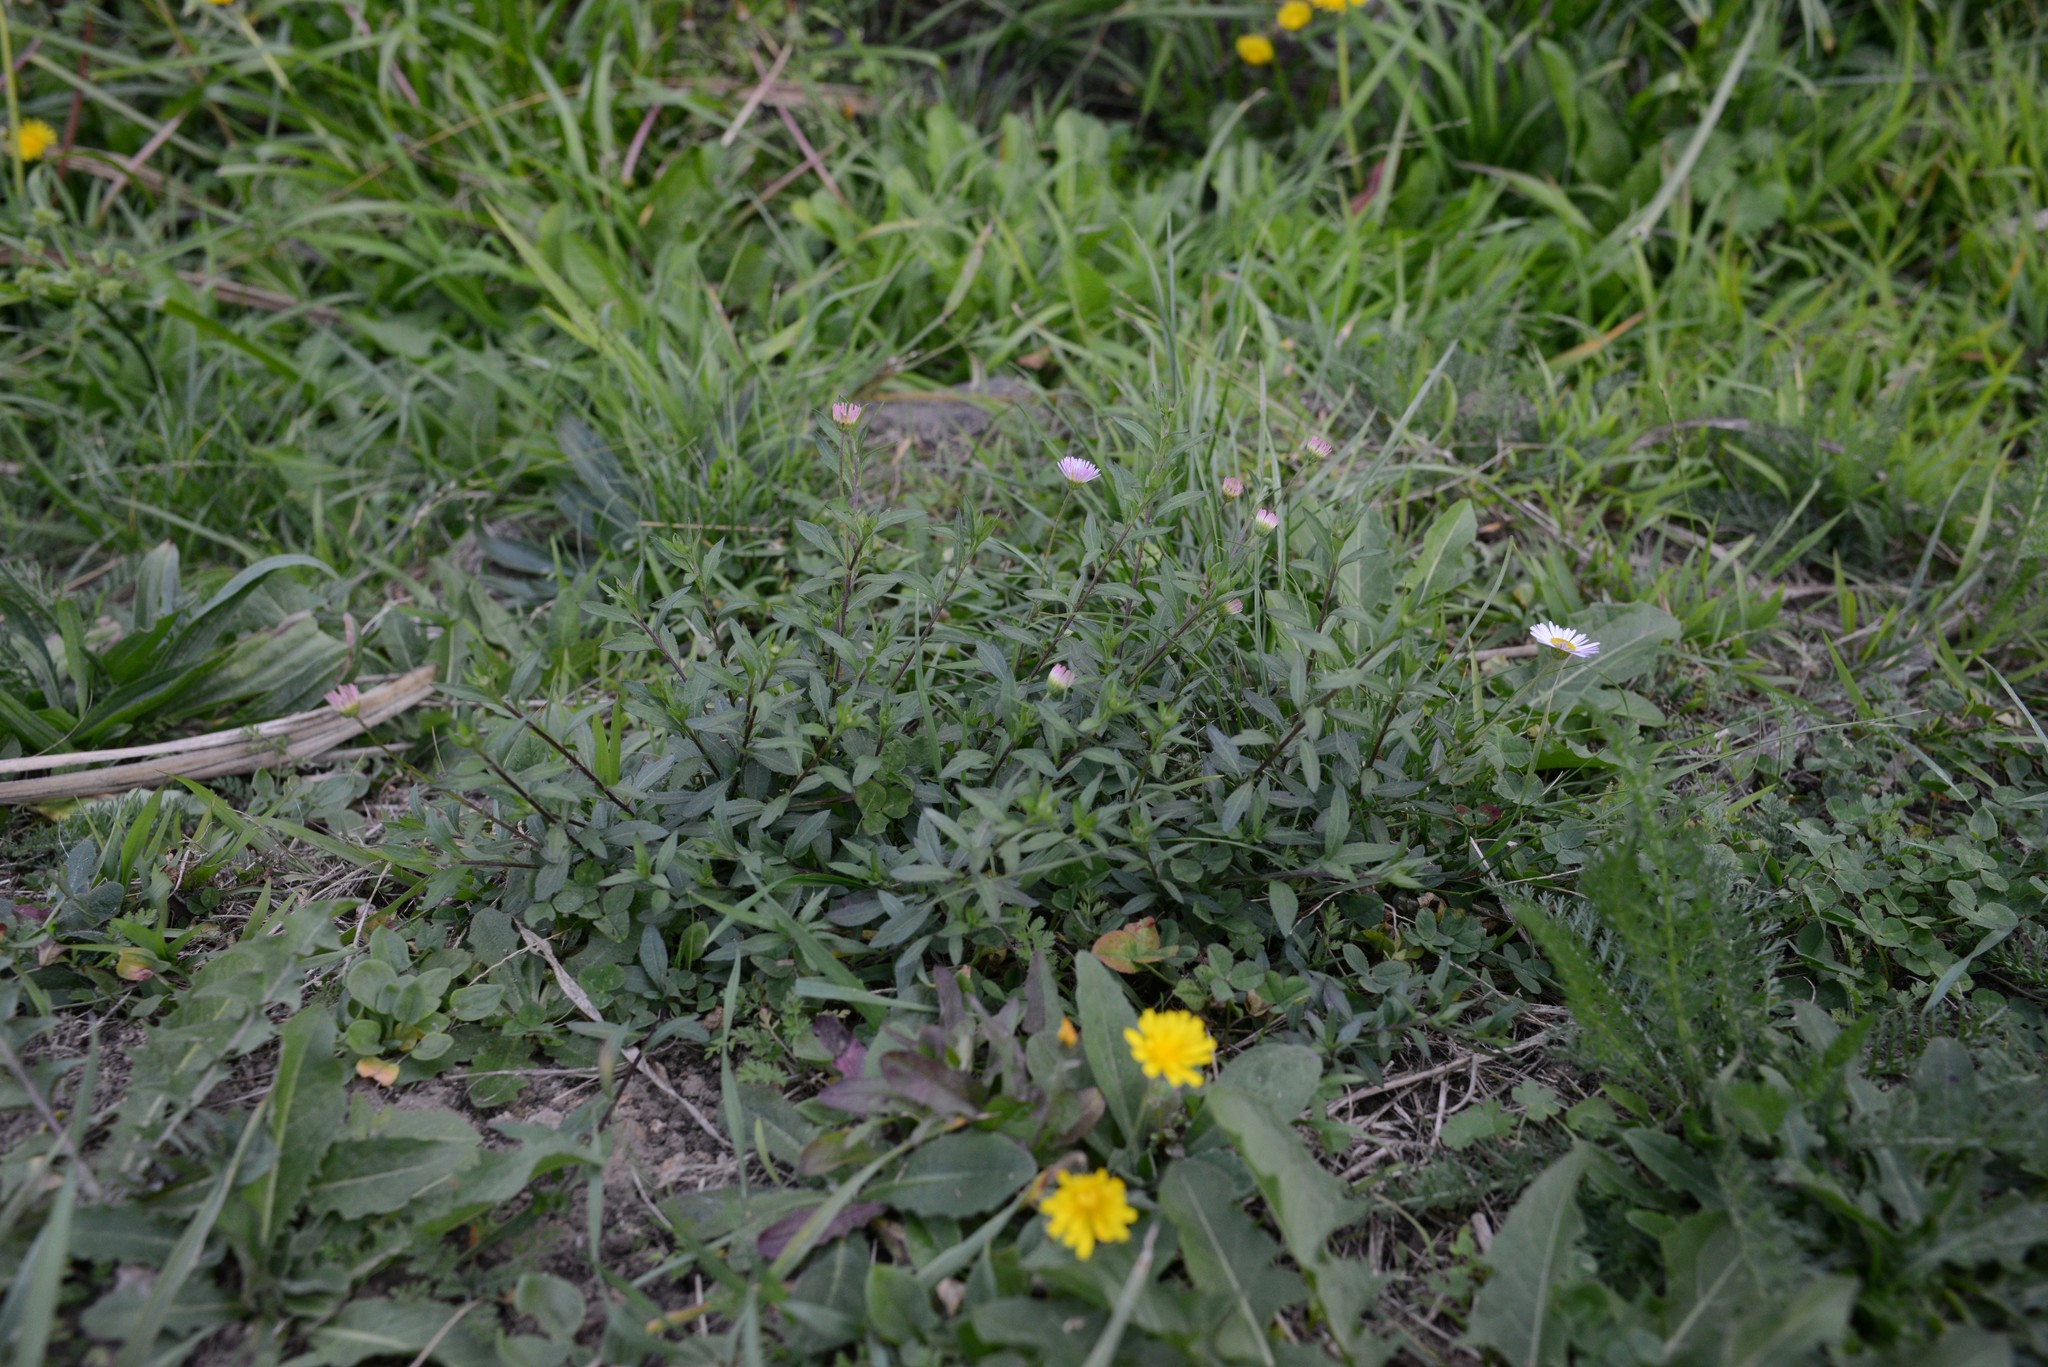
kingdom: Plantae
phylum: Tracheophyta
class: Magnoliopsida
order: Asterales
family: Asteraceae
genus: Erigeron
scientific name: Erigeron karvinskianus
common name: Mexican fleabane
